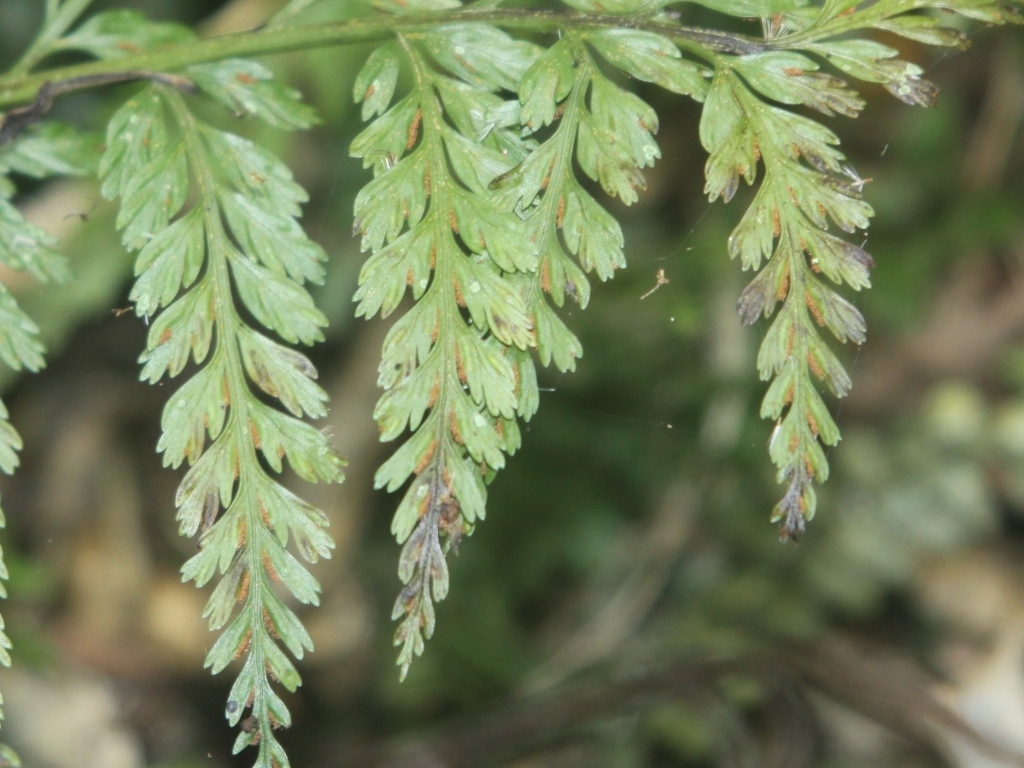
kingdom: Plantae
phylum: Tracheophyta
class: Polypodiopsida
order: Polypodiales
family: Aspleniaceae
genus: Asplenium
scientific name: Asplenium bulbiferum
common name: Mother fern
